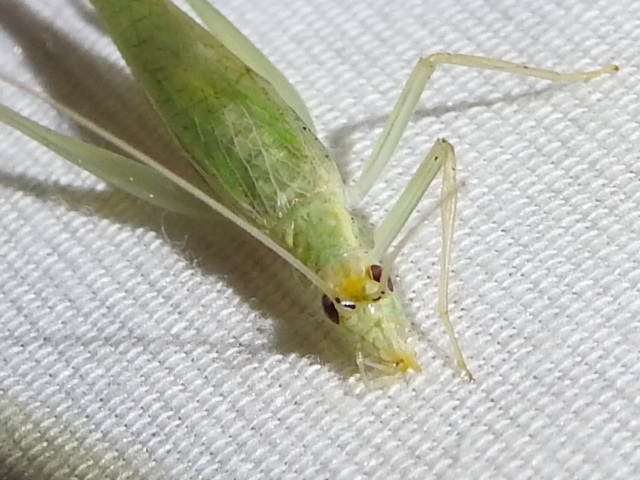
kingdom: Animalia
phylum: Arthropoda
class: Insecta
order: Orthoptera
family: Gryllidae
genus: Oecanthus
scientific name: Oecanthus exclamationis
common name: Davis's tree cricket
